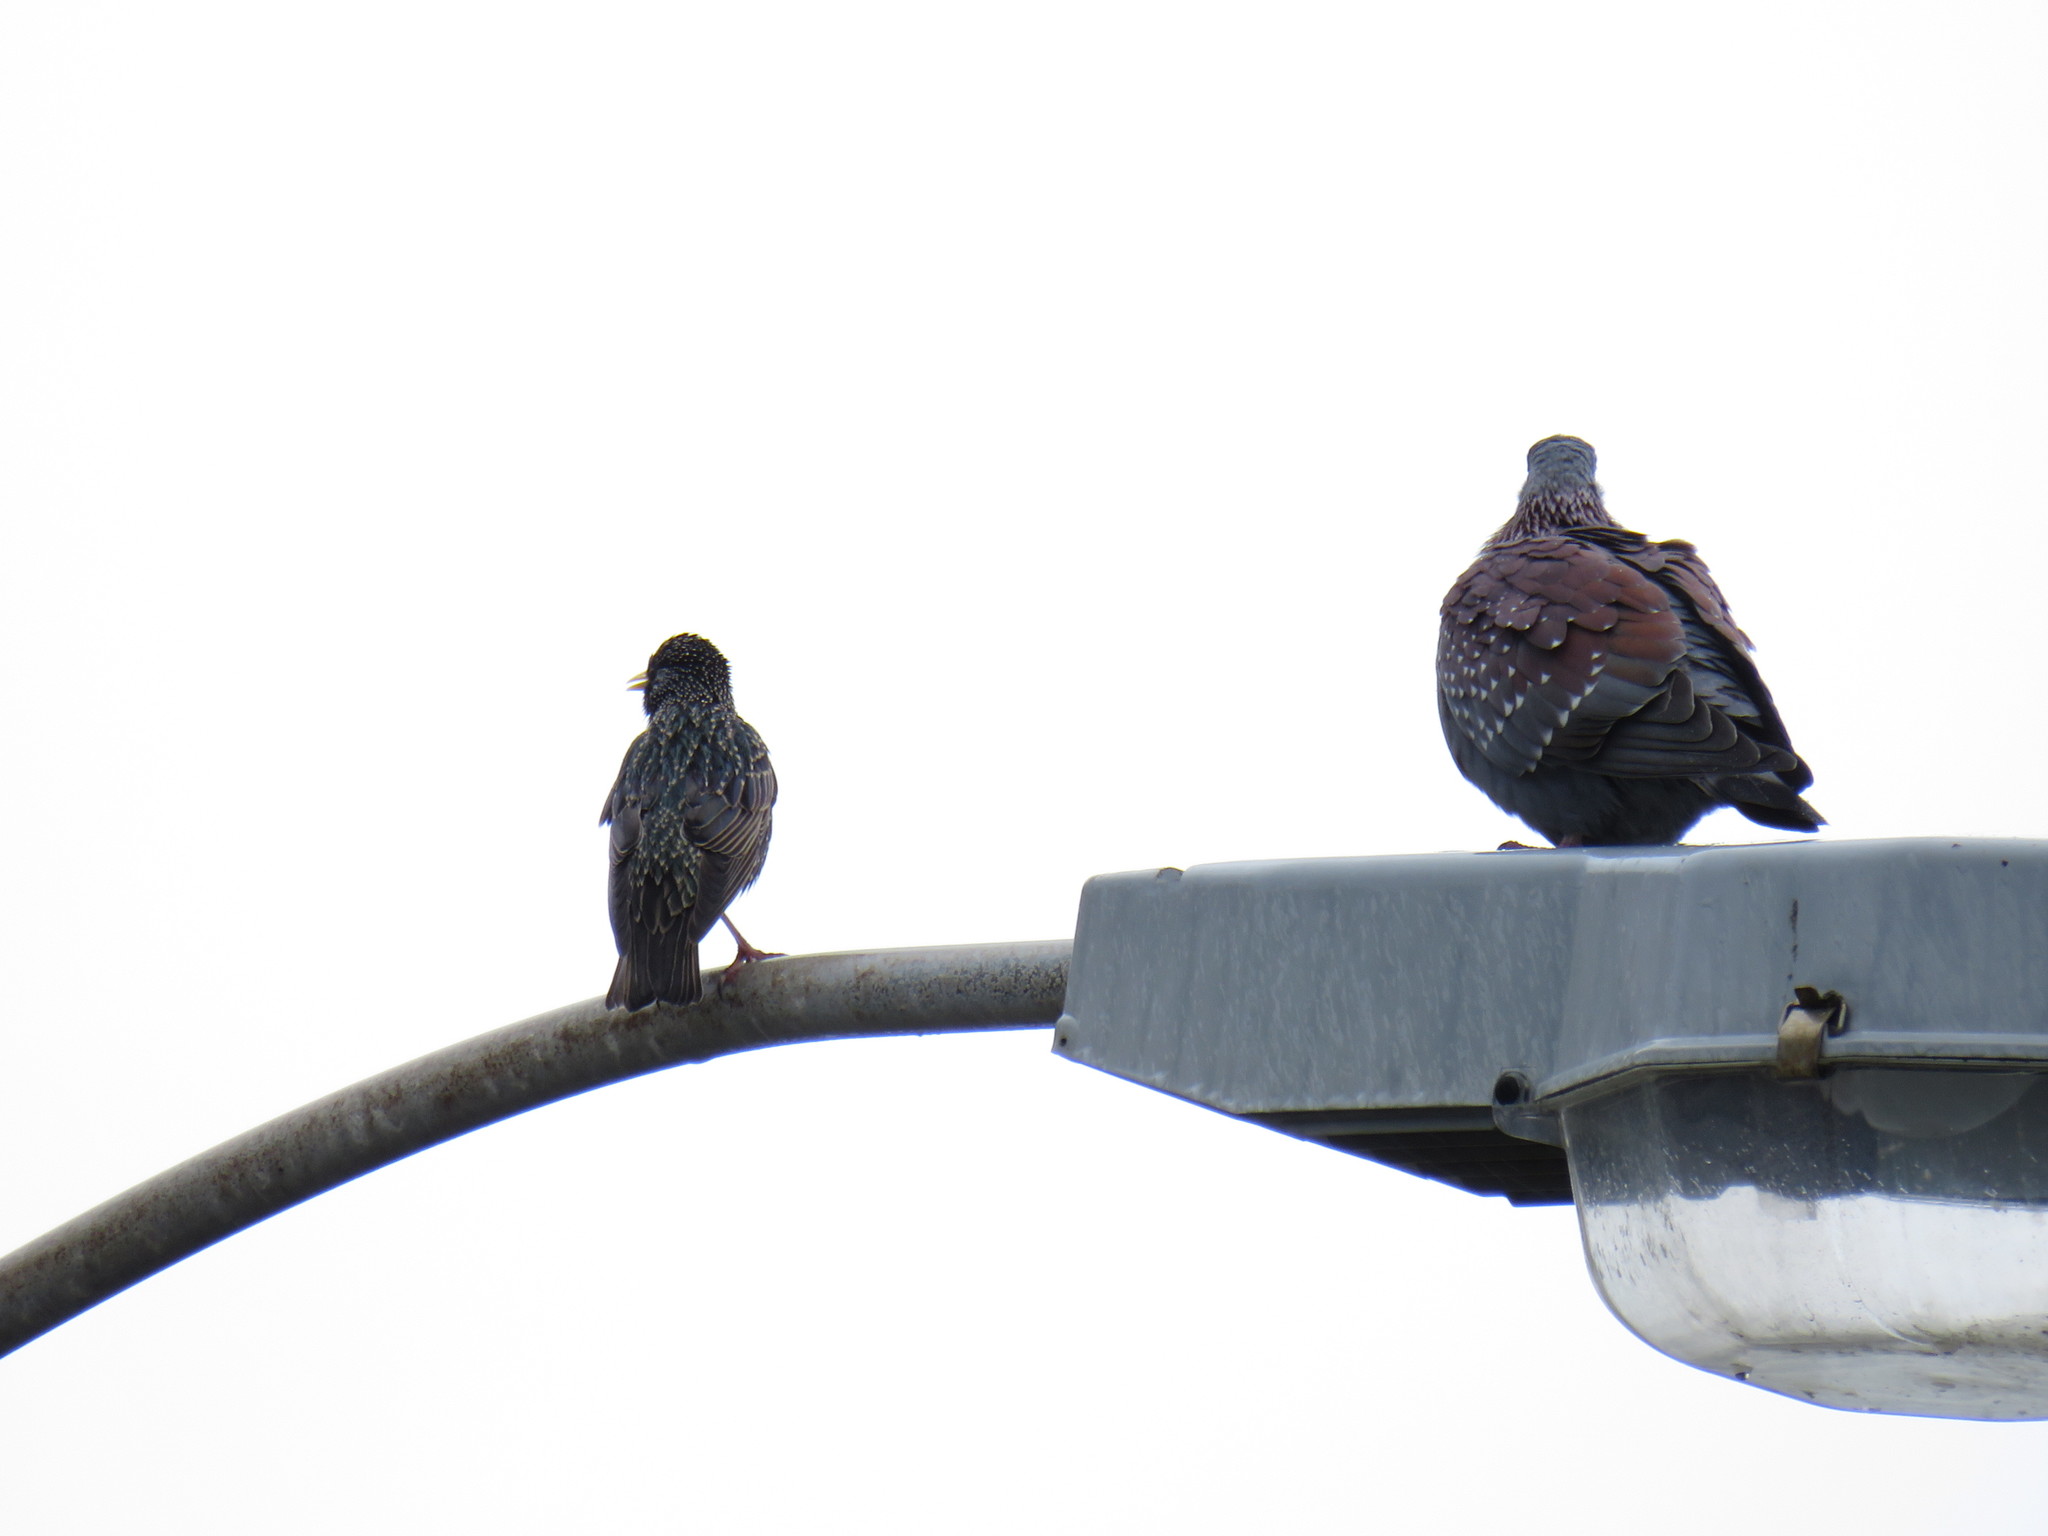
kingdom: Animalia
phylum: Chordata
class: Aves
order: Columbiformes
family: Columbidae
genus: Columba
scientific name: Columba guinea
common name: Speckled pigeon
